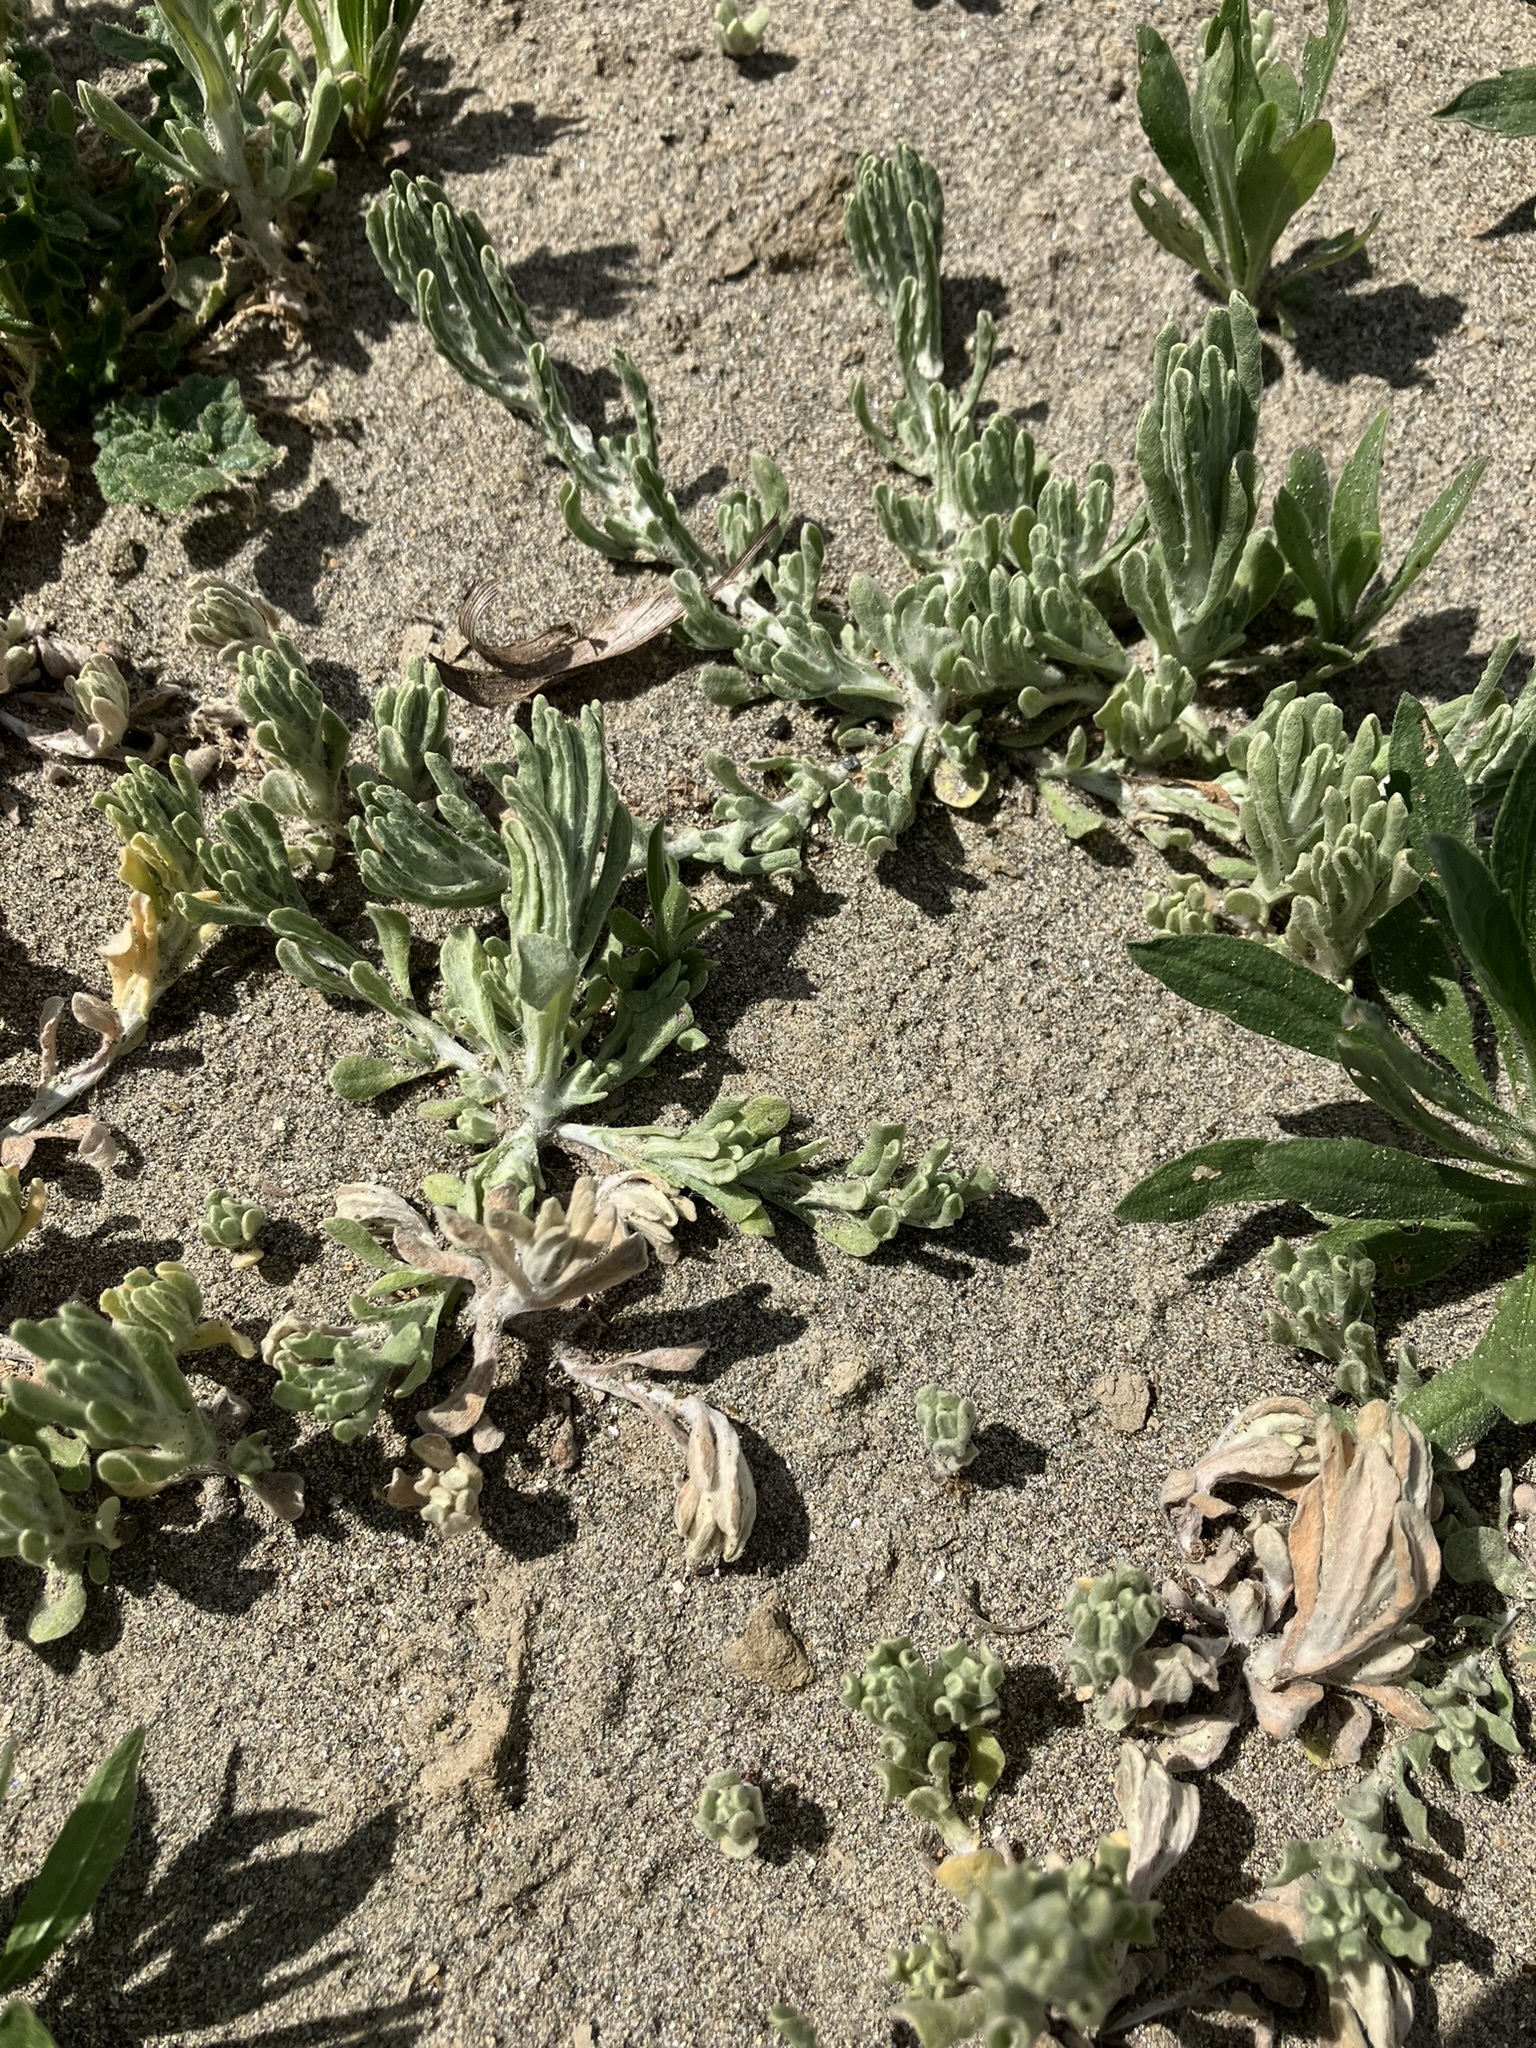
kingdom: Plantae
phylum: Tracheophyta
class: Magnoliopsida
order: Asterales
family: Asteraceae
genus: Gnaphalium
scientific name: Gnaphalium palustre
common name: Western marsh cudweed
